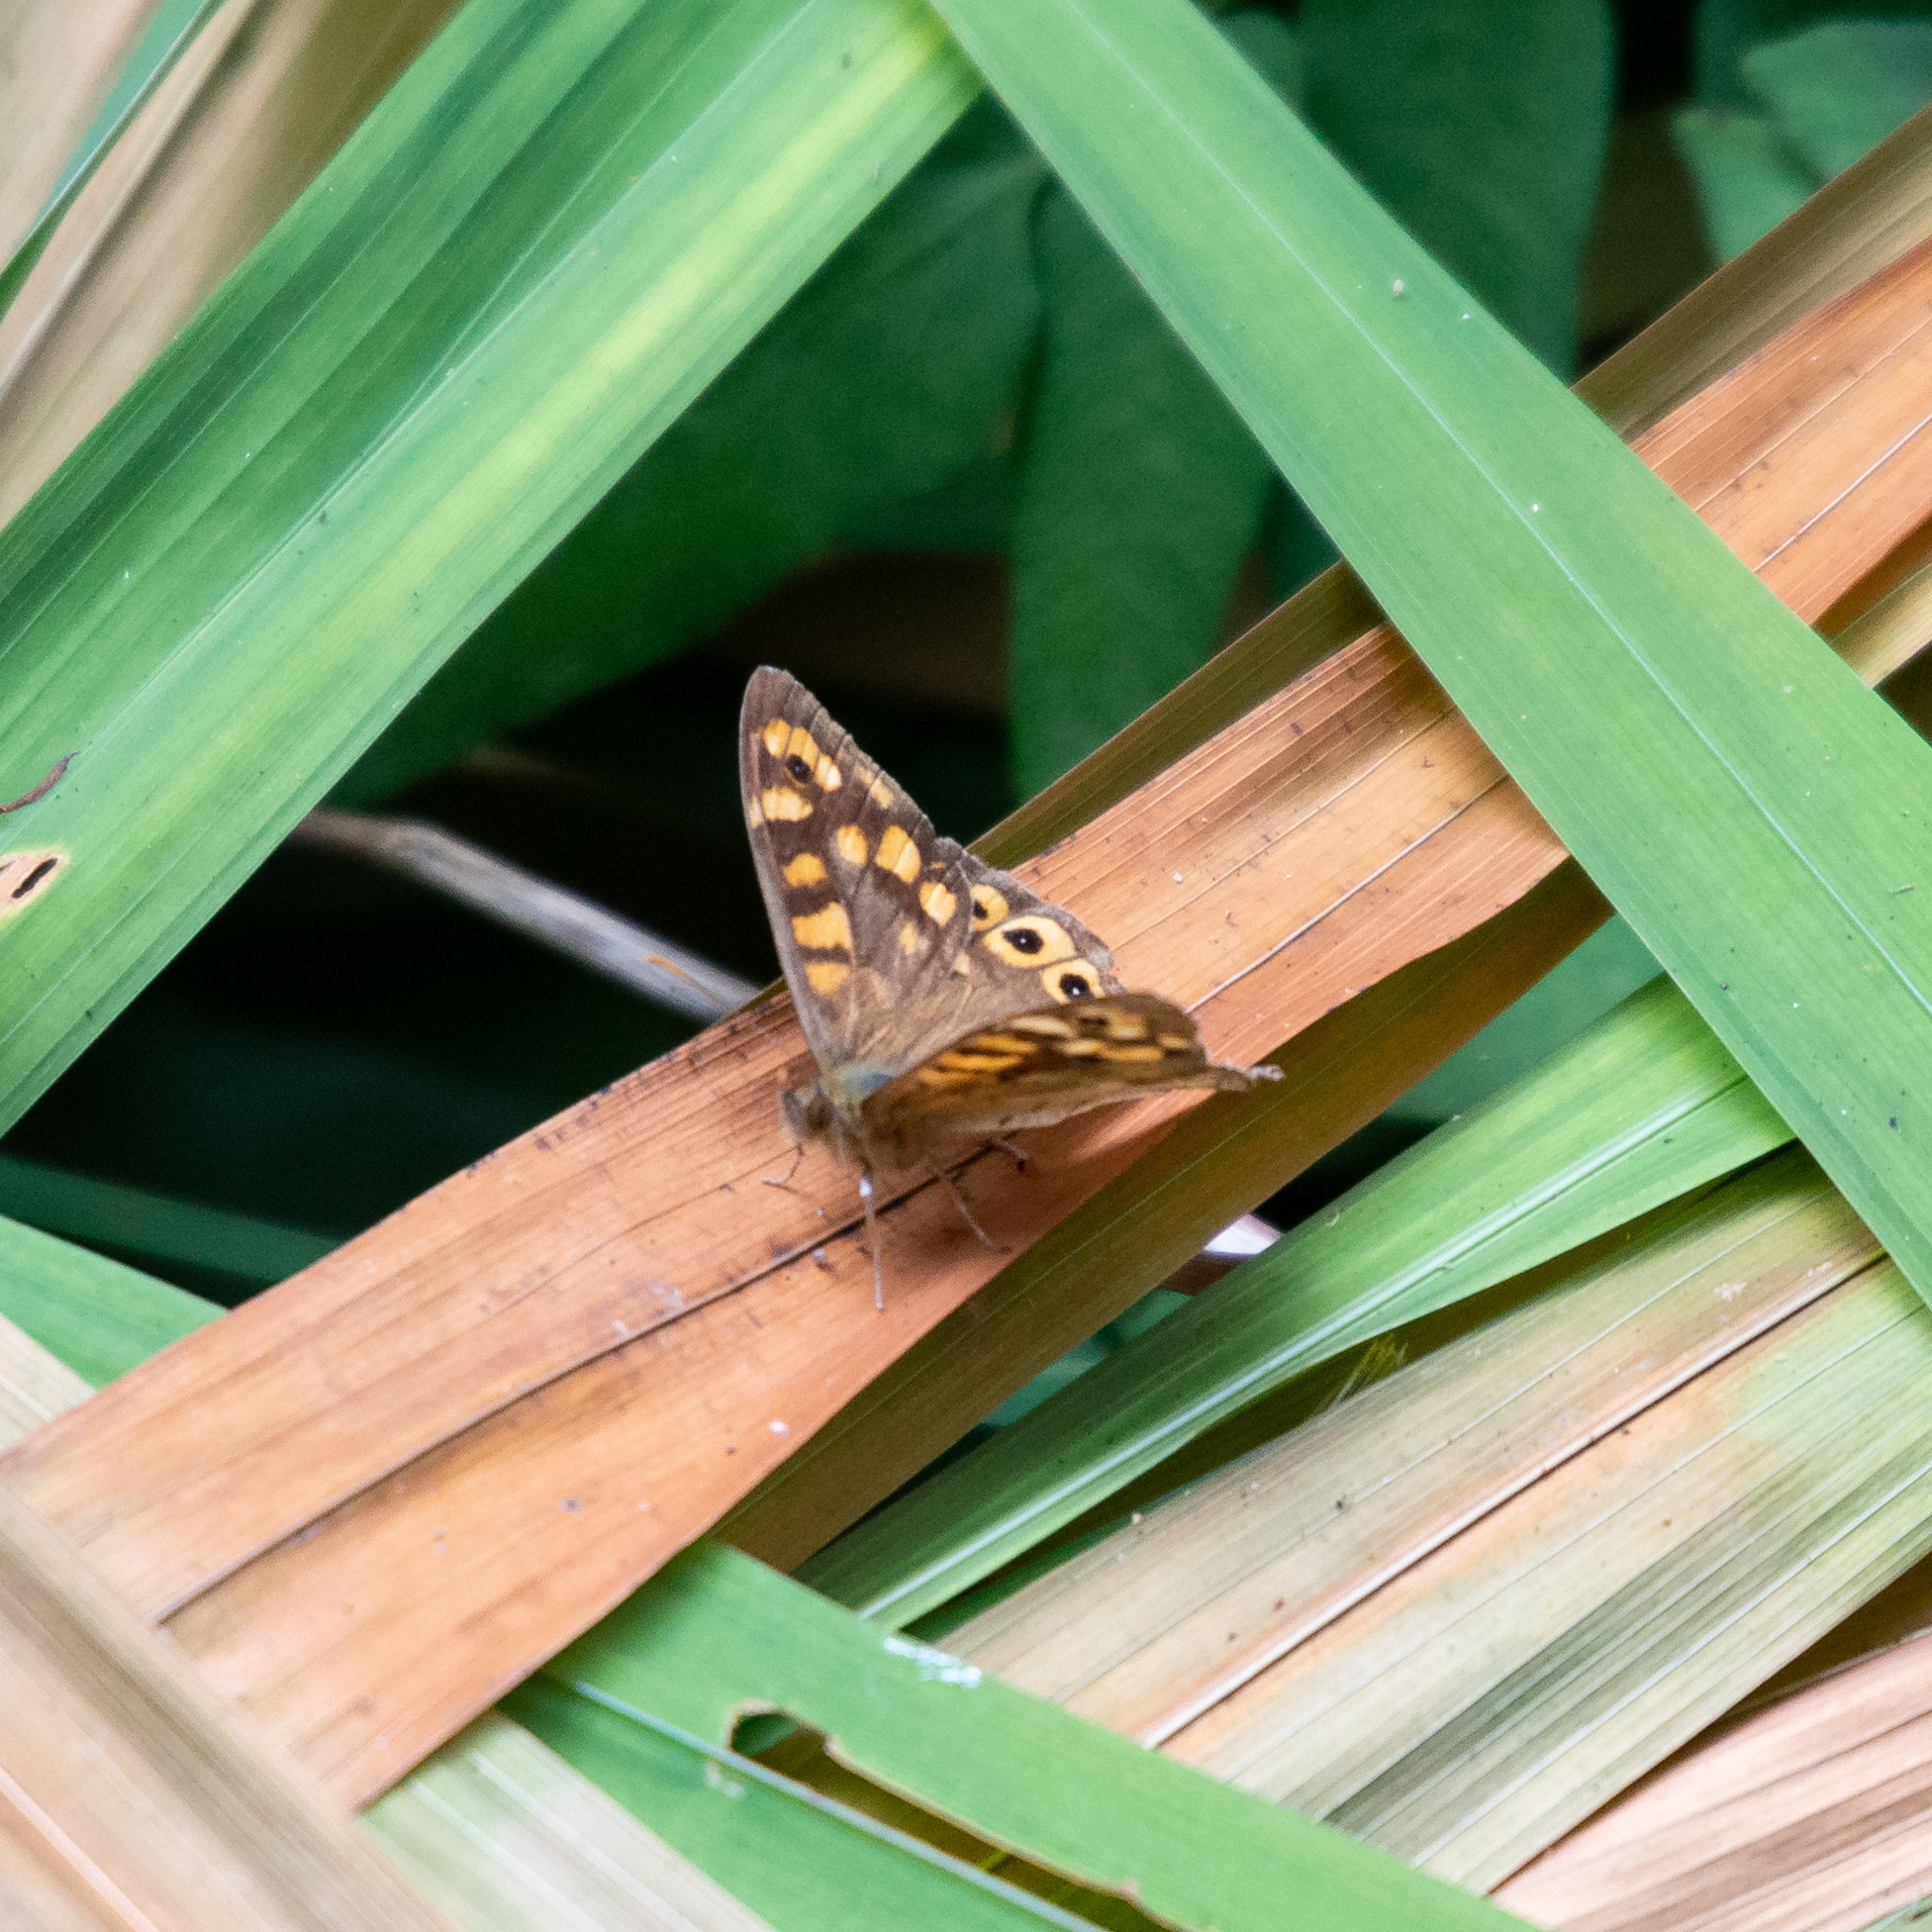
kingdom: Animalia
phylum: Arthropoda
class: Insecta
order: Lepidoptera
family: Nymphalidae
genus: Pararge
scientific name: Pararge aegeria
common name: Speckled wood
